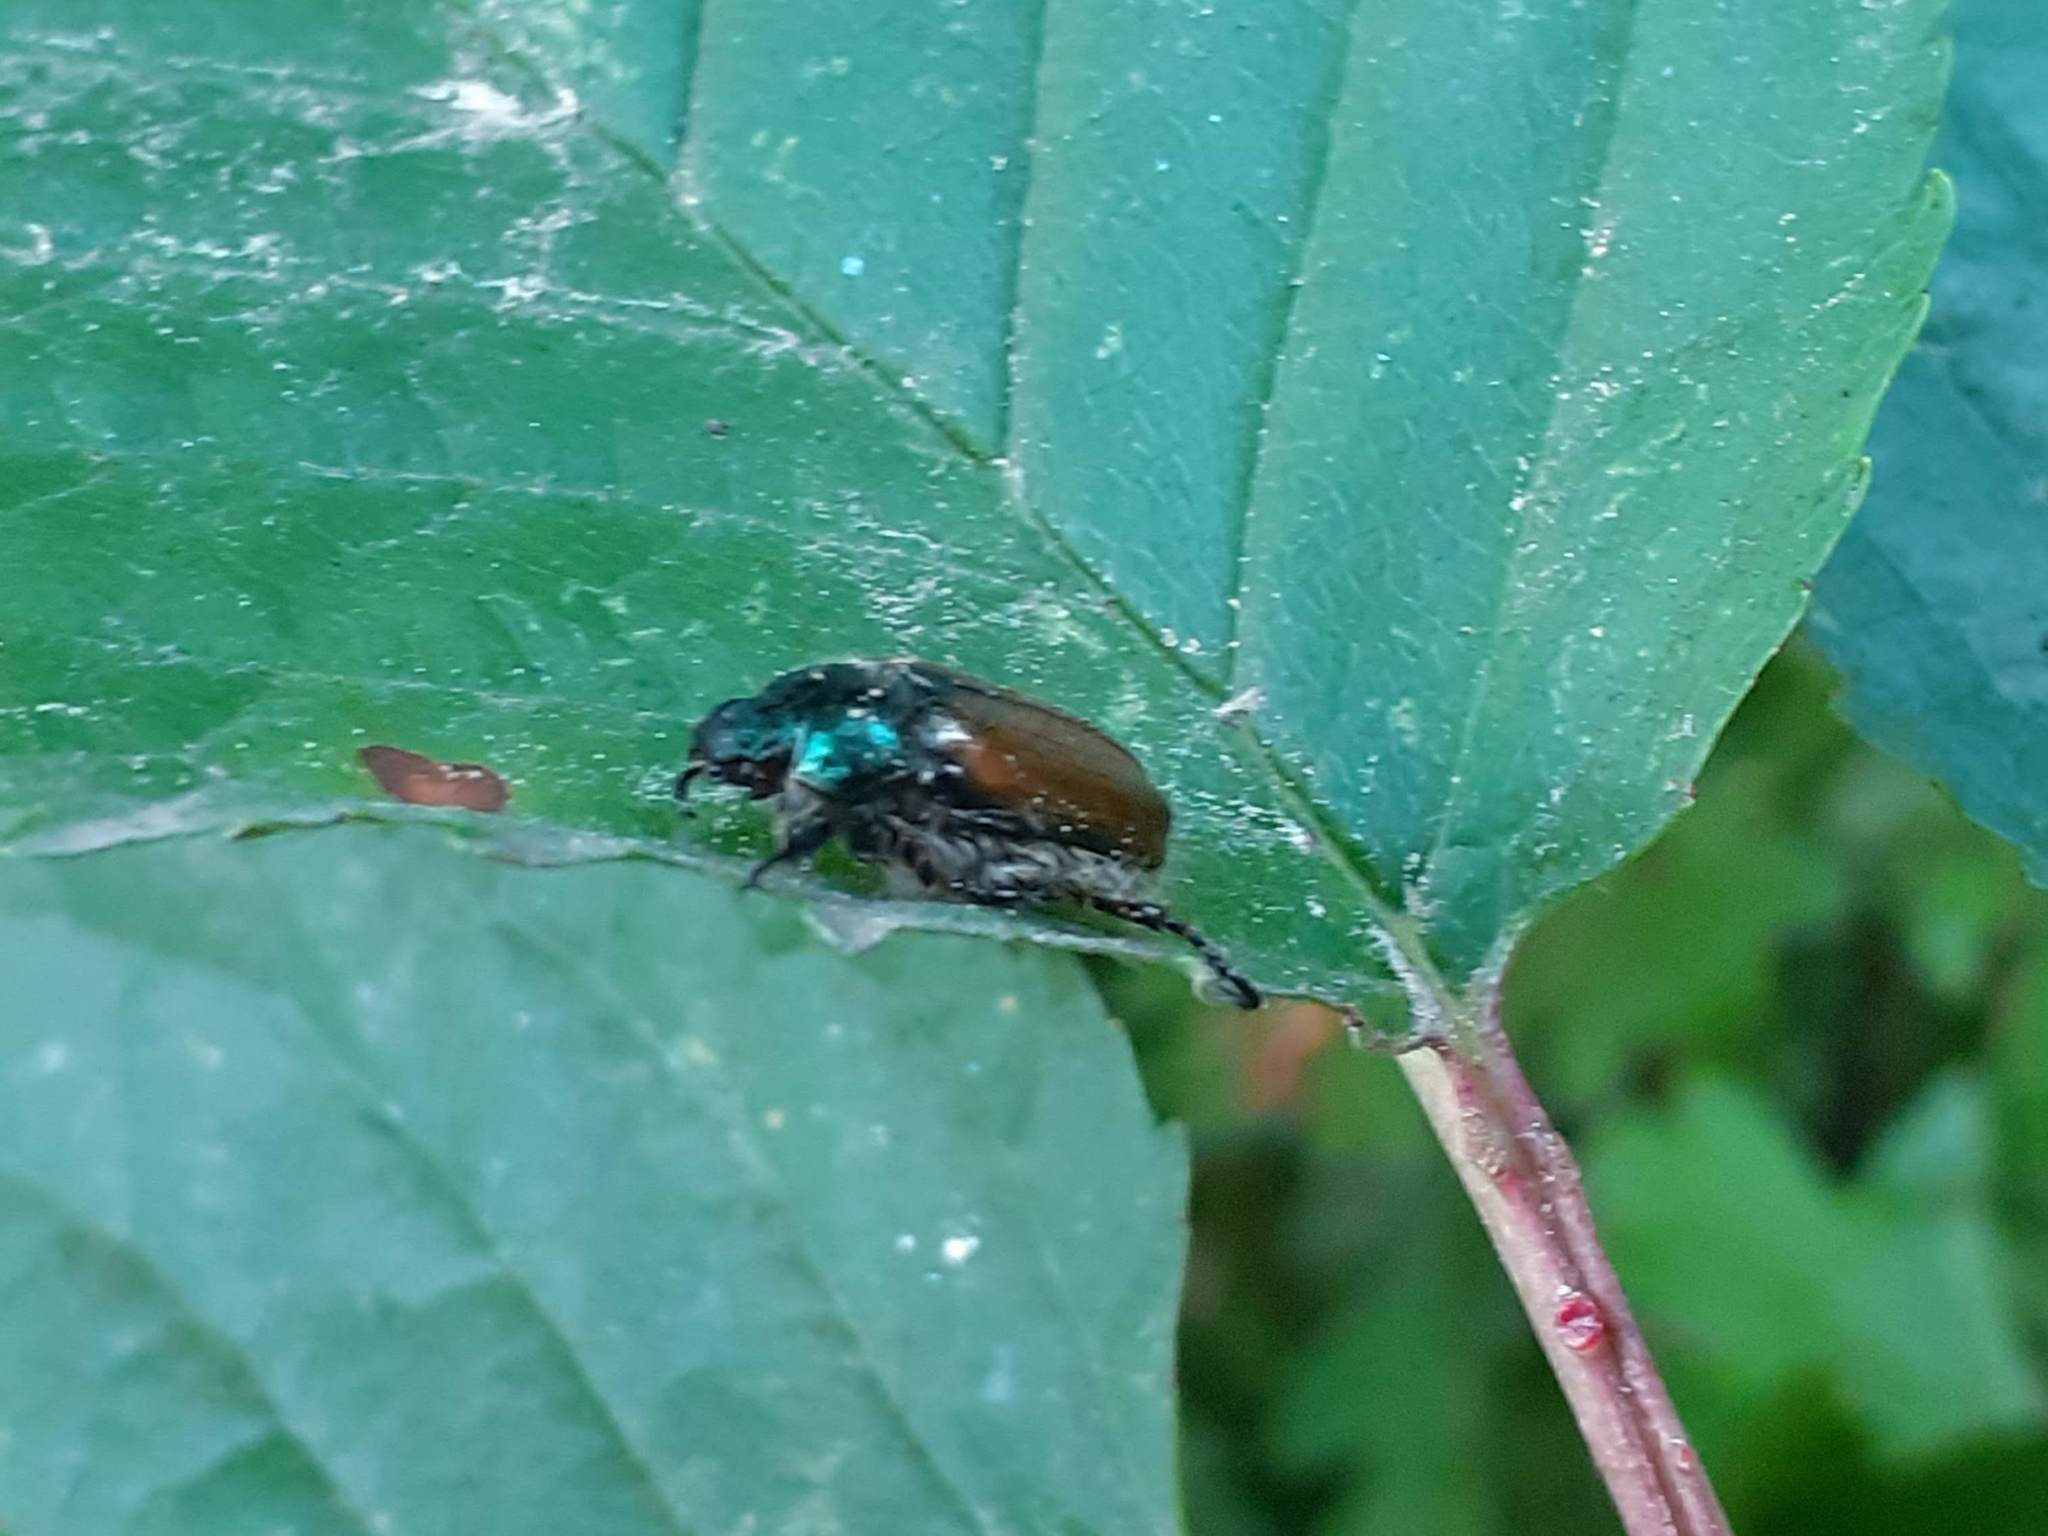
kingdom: Animalia
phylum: Arthropoda
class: Insecta
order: Coleoptera
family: Scarabaeidae
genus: Phyllopertha
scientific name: Phyllopertha horticola
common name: Garden chafer
